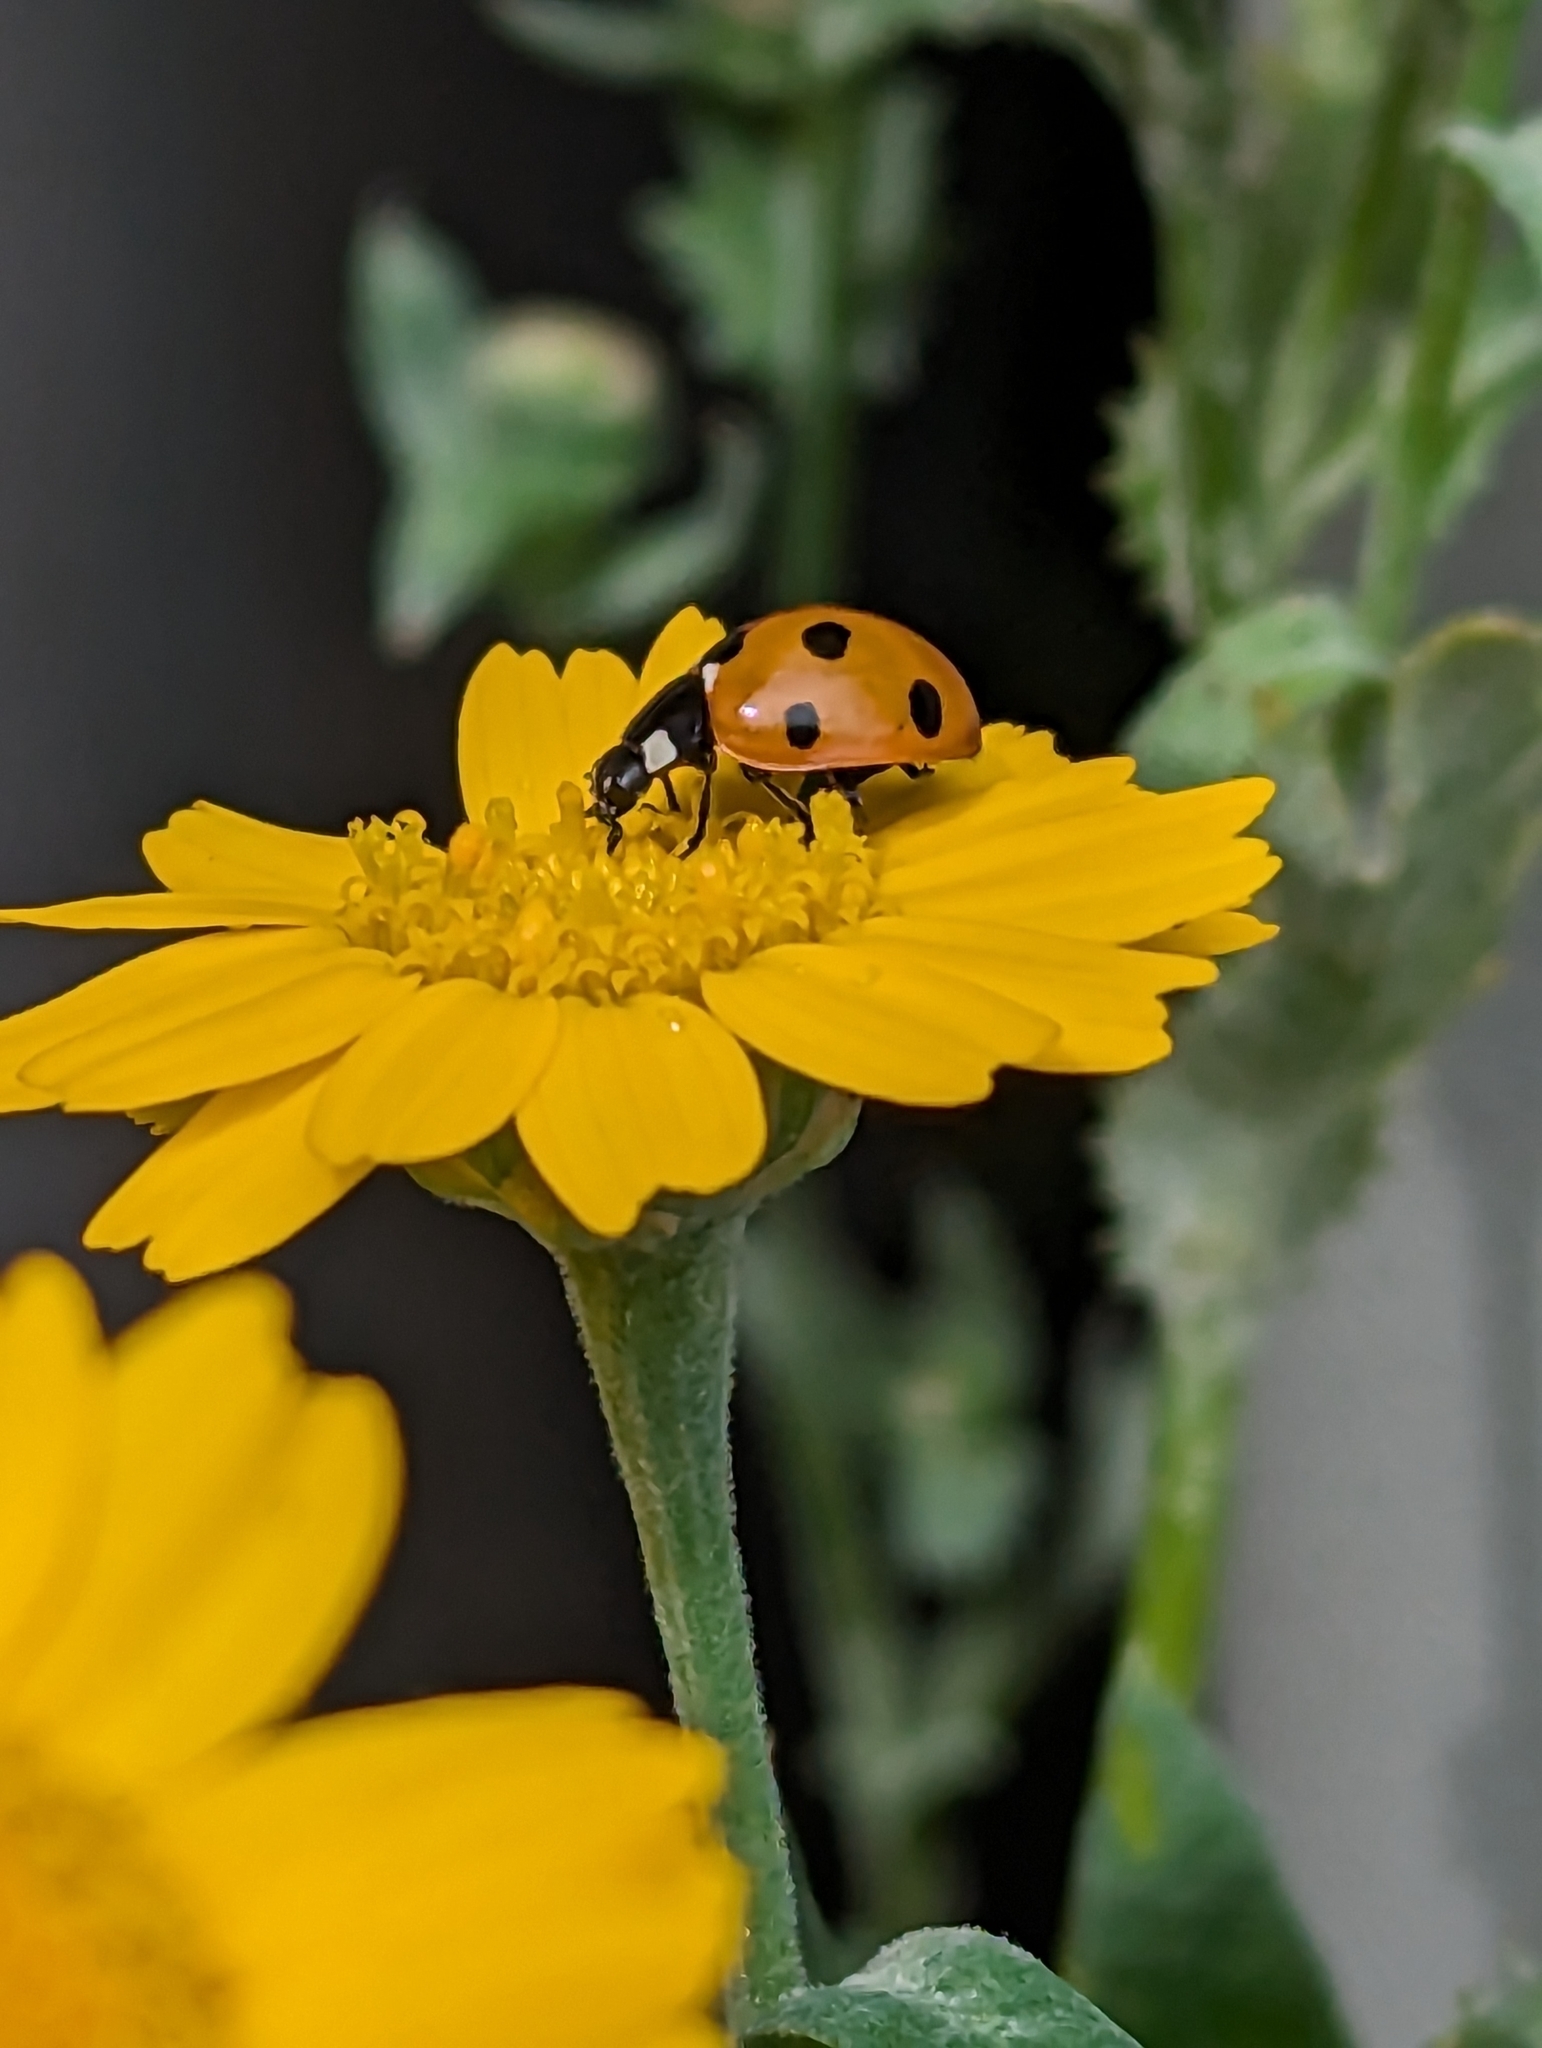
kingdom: Animalia
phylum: Arthropoda
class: Insecta
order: Coleoptera
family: Coccinellidae
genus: Coccinella
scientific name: Coccinella septempunctata
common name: Sevenspotted lady beetle
